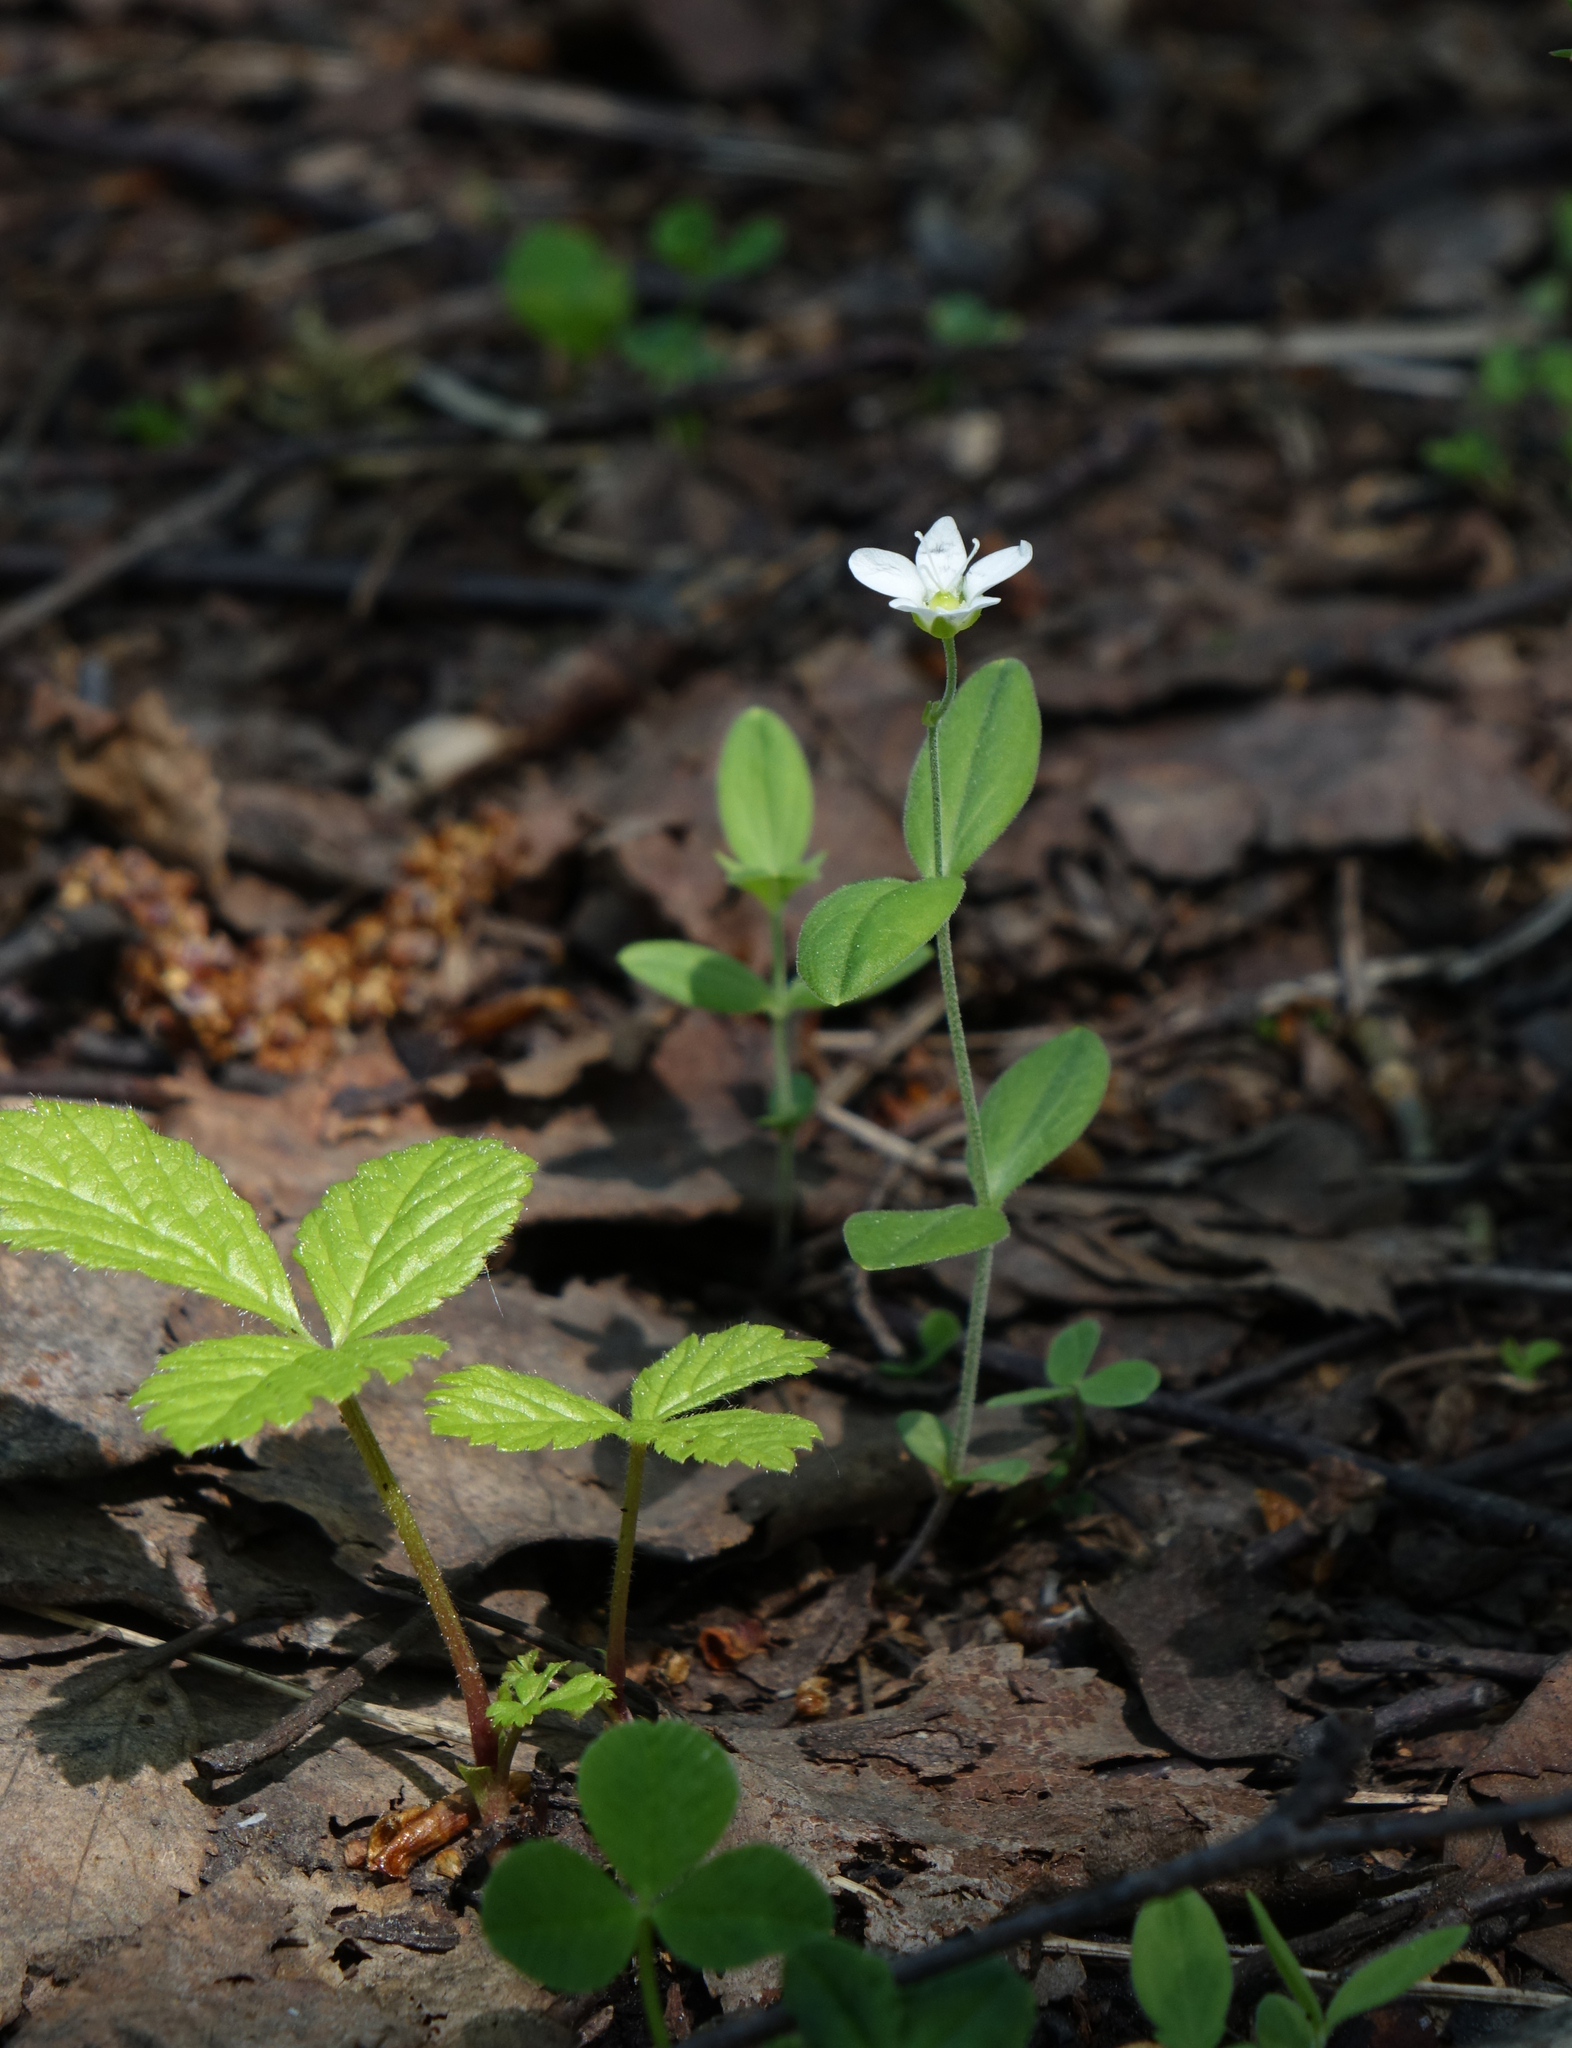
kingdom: Plantae
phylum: Tracheophyta
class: Magnoliopsida
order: Caryophyllales
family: Caryophyllaceae
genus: Moehringia
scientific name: Moehringia lateriflora
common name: Blunt-leaved sandwort
